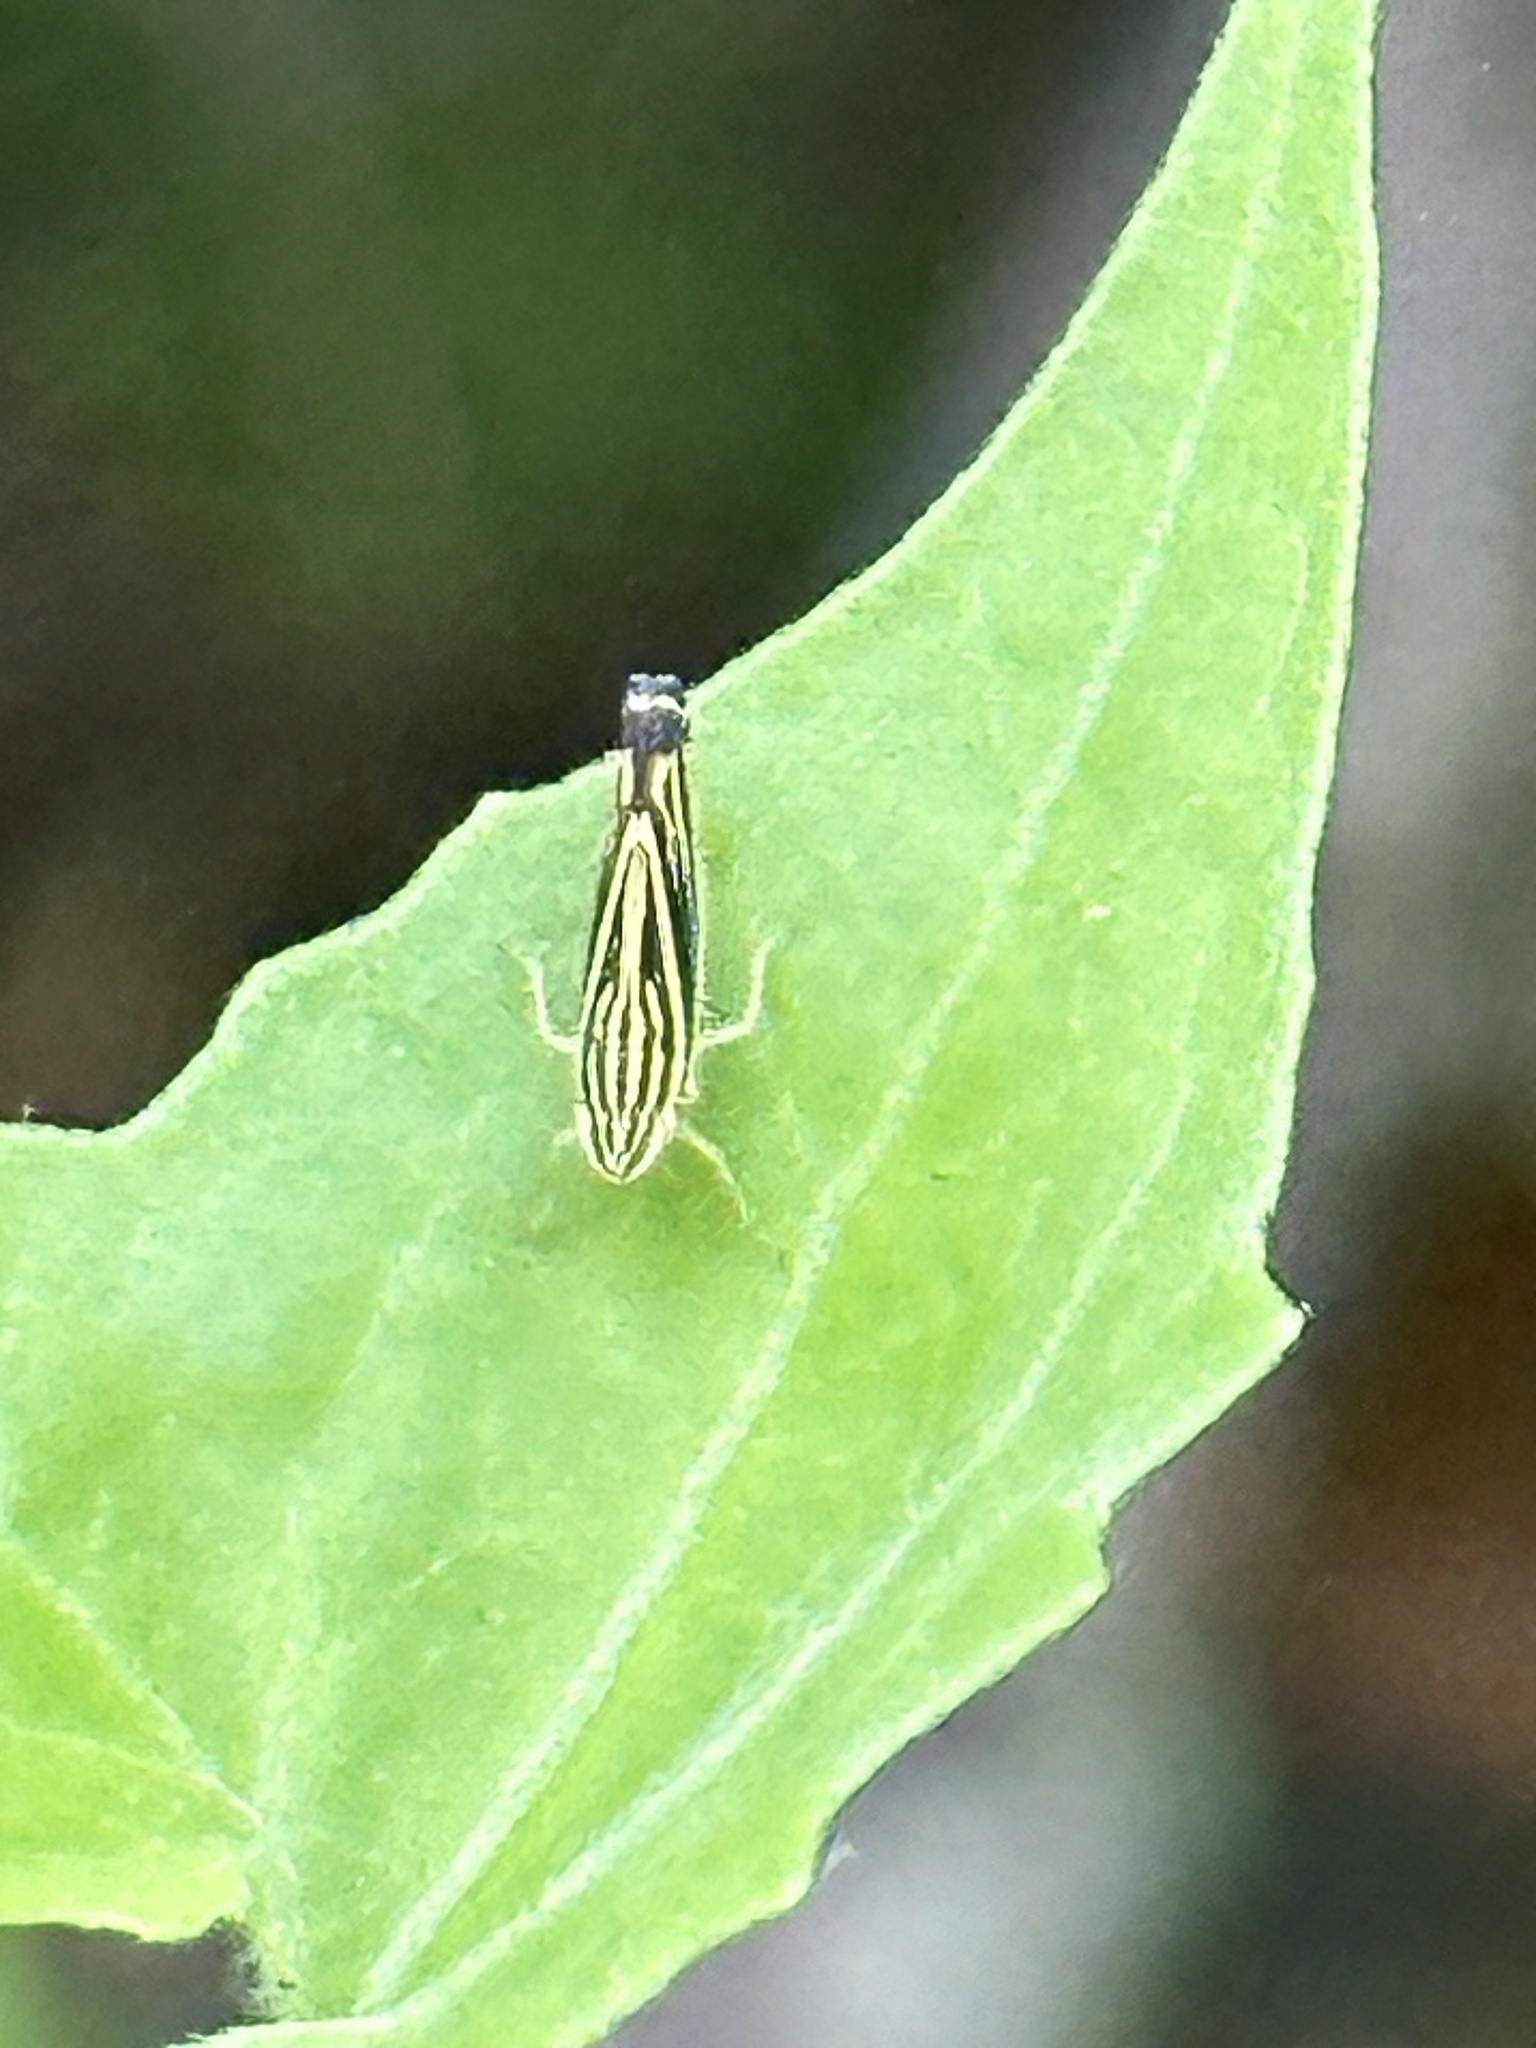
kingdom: Animalia
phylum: Arthropoda
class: Insecta
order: Hemiptera
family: Cicadellidae
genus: Sibovia
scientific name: Sibovia occatoria
